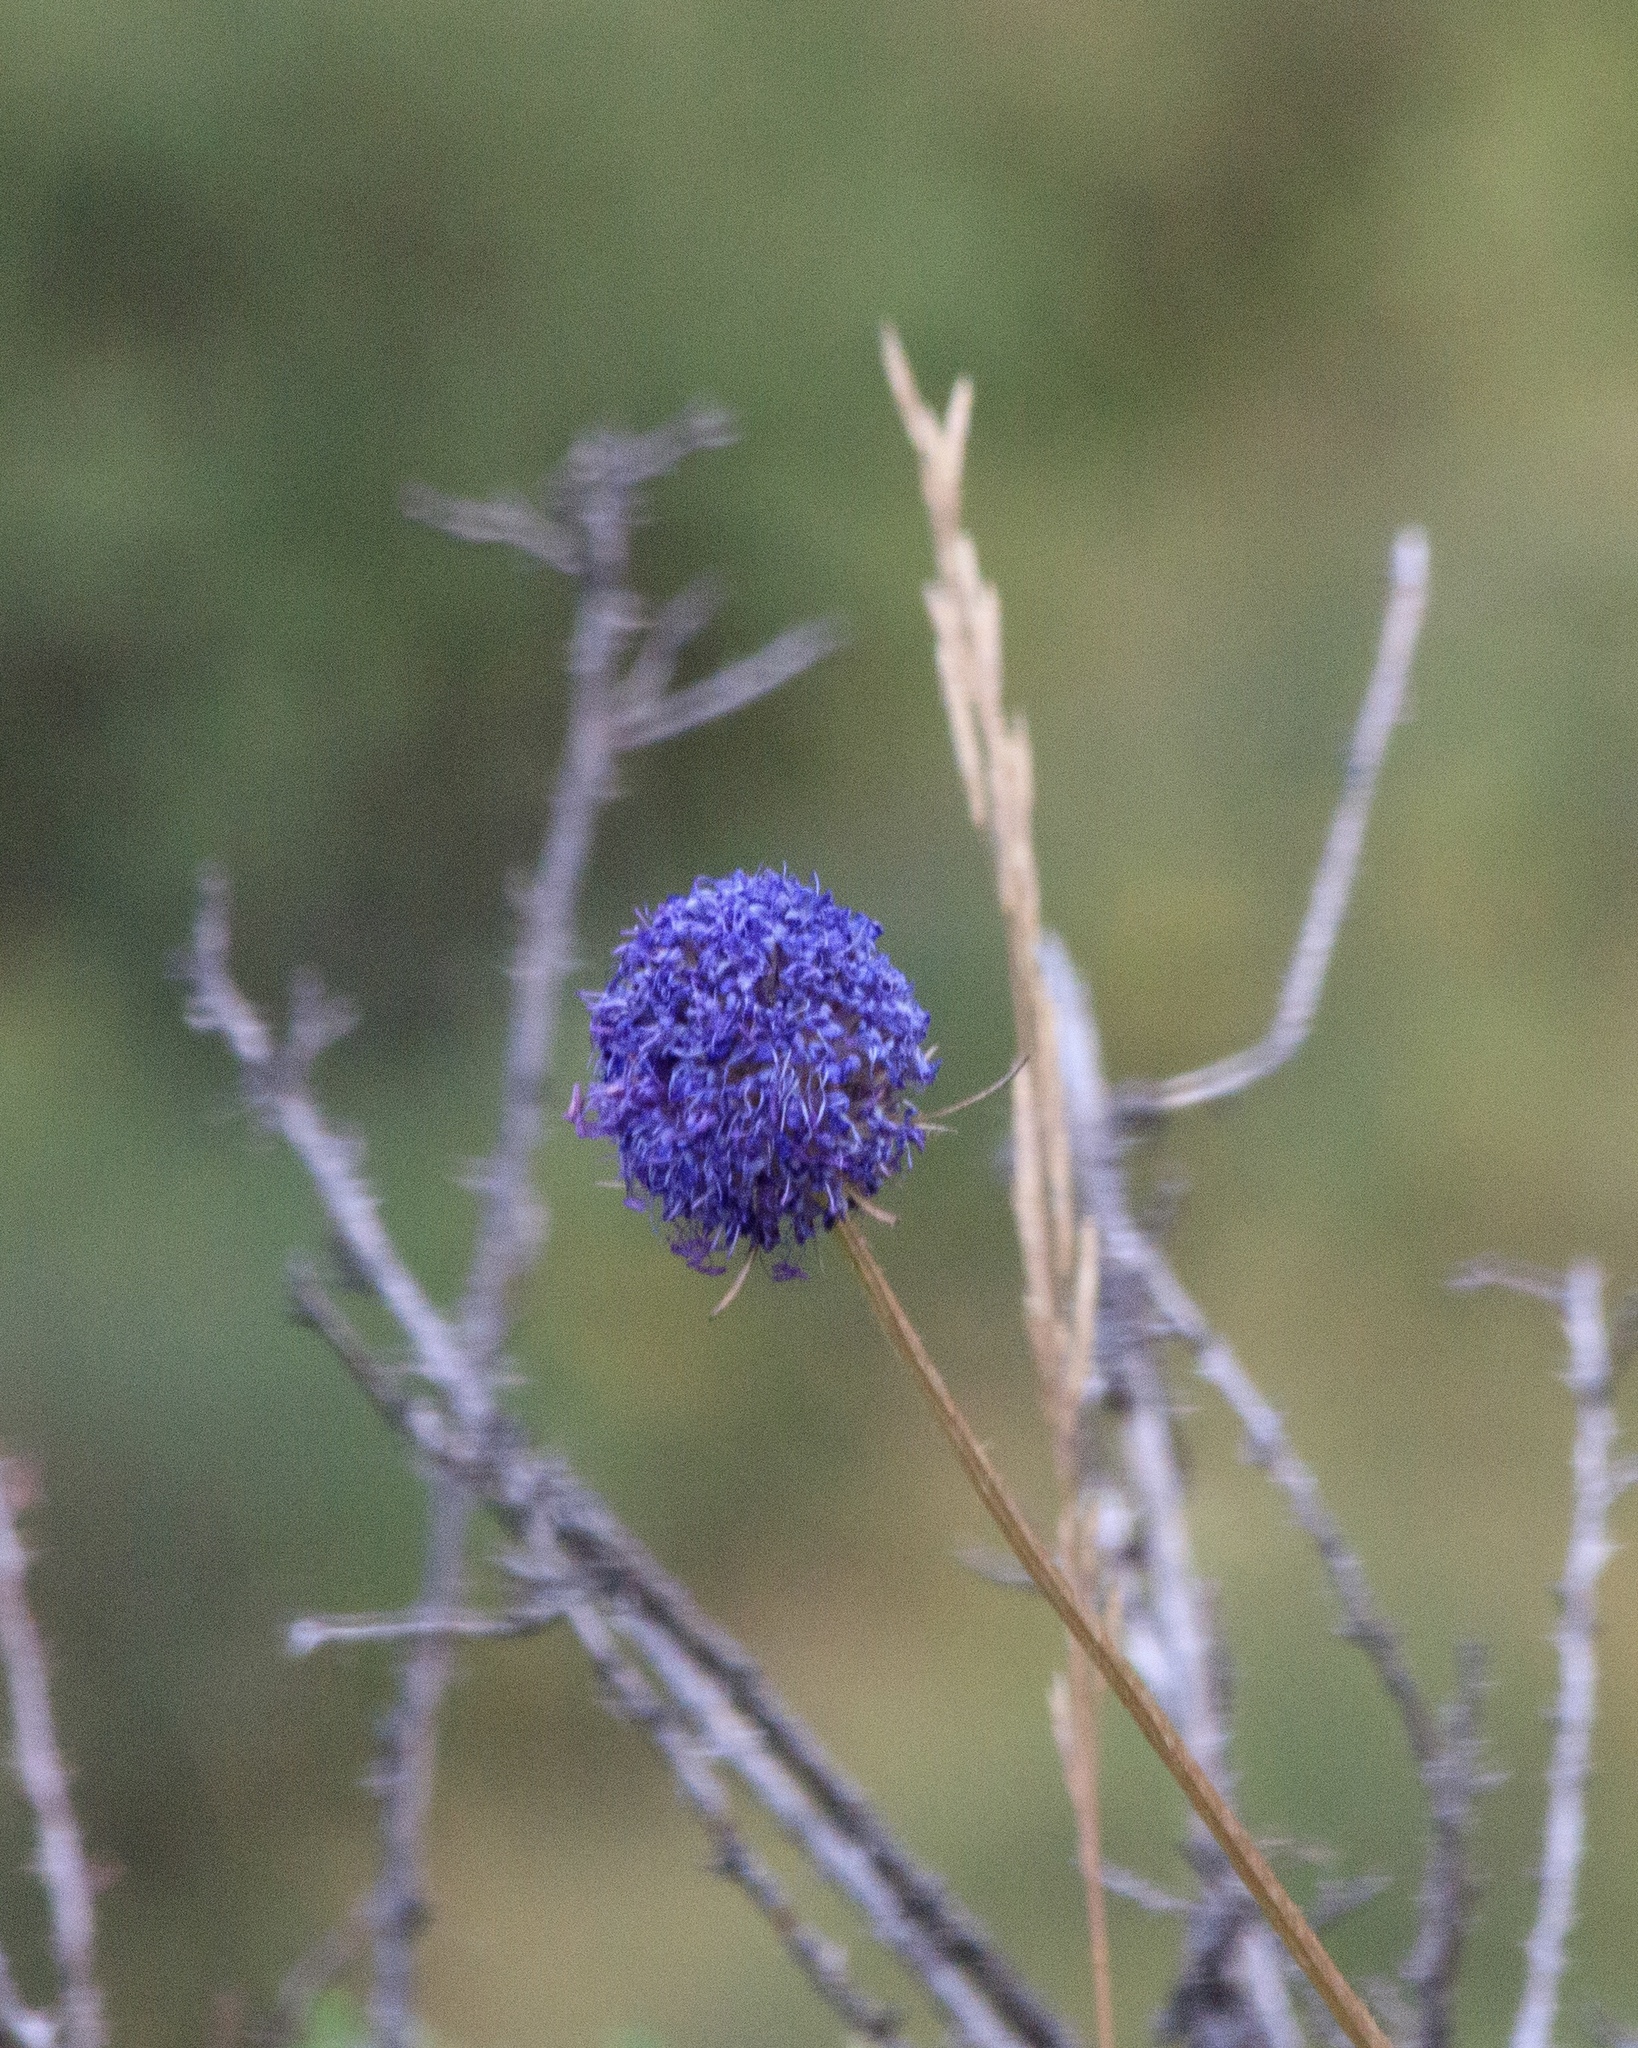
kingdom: Plantae
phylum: Tracheophyta
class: Magnoliopsida
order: Dipsacales
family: Caprifoliaceae
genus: Dipsacus
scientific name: Dipsacus azureus
